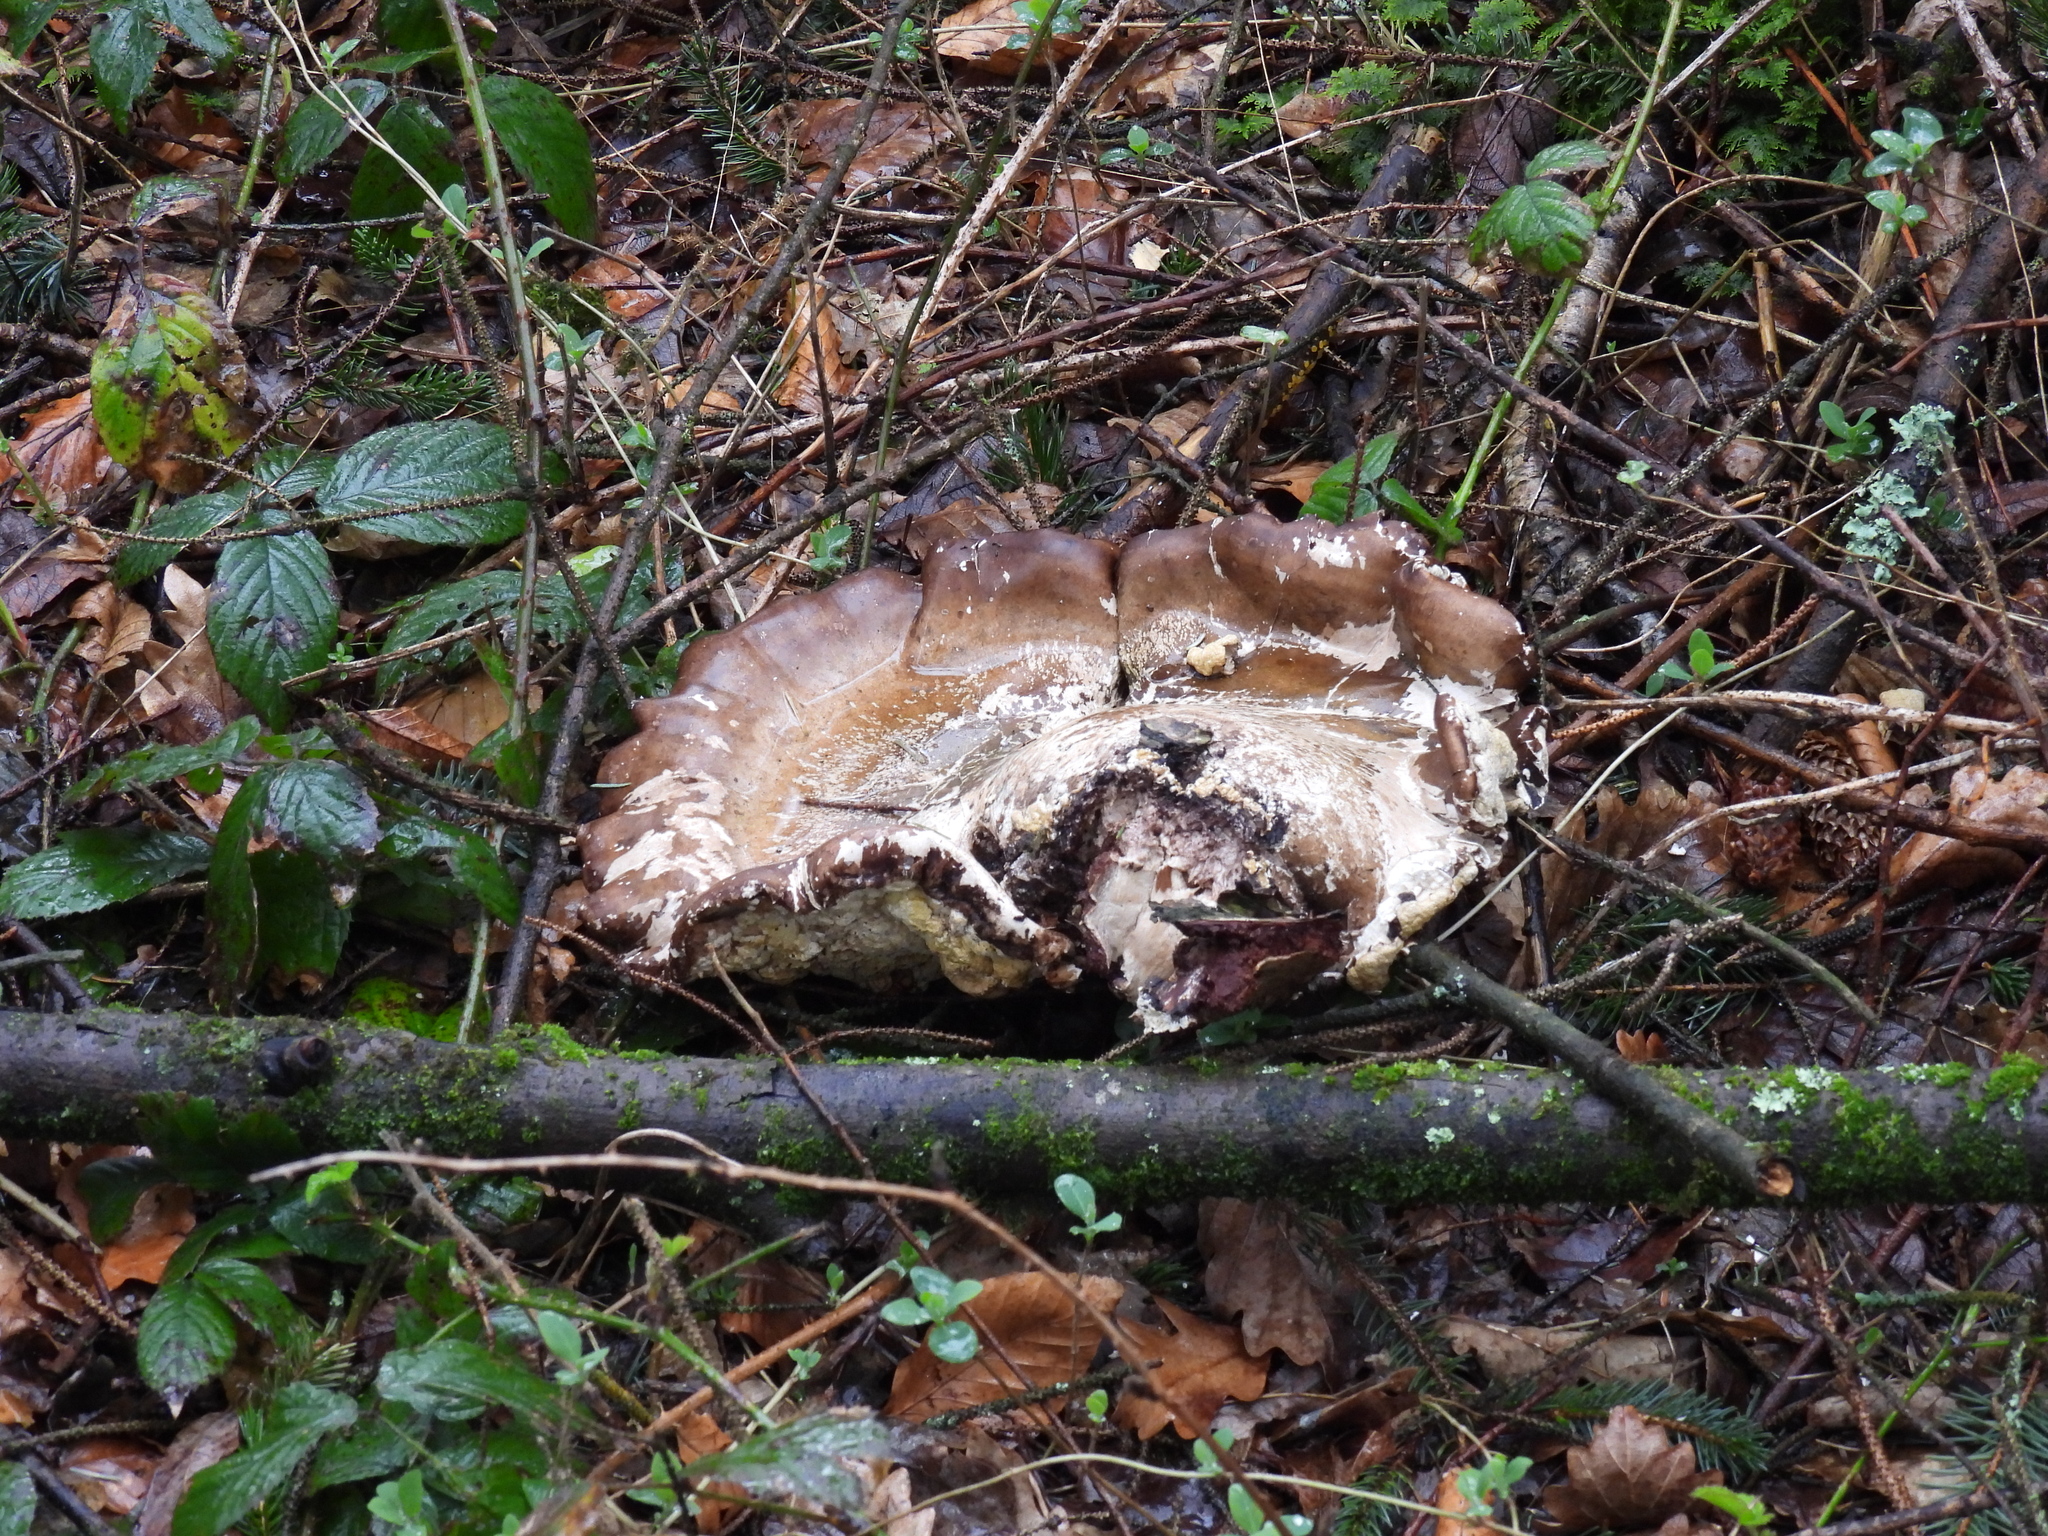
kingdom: Fungi
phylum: Basidiomycota
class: Agaricomycetes
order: Polyporales
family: Fomitopsidaceae
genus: Fomitopsis
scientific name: Fomitopsis betulina
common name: Birch polypore
